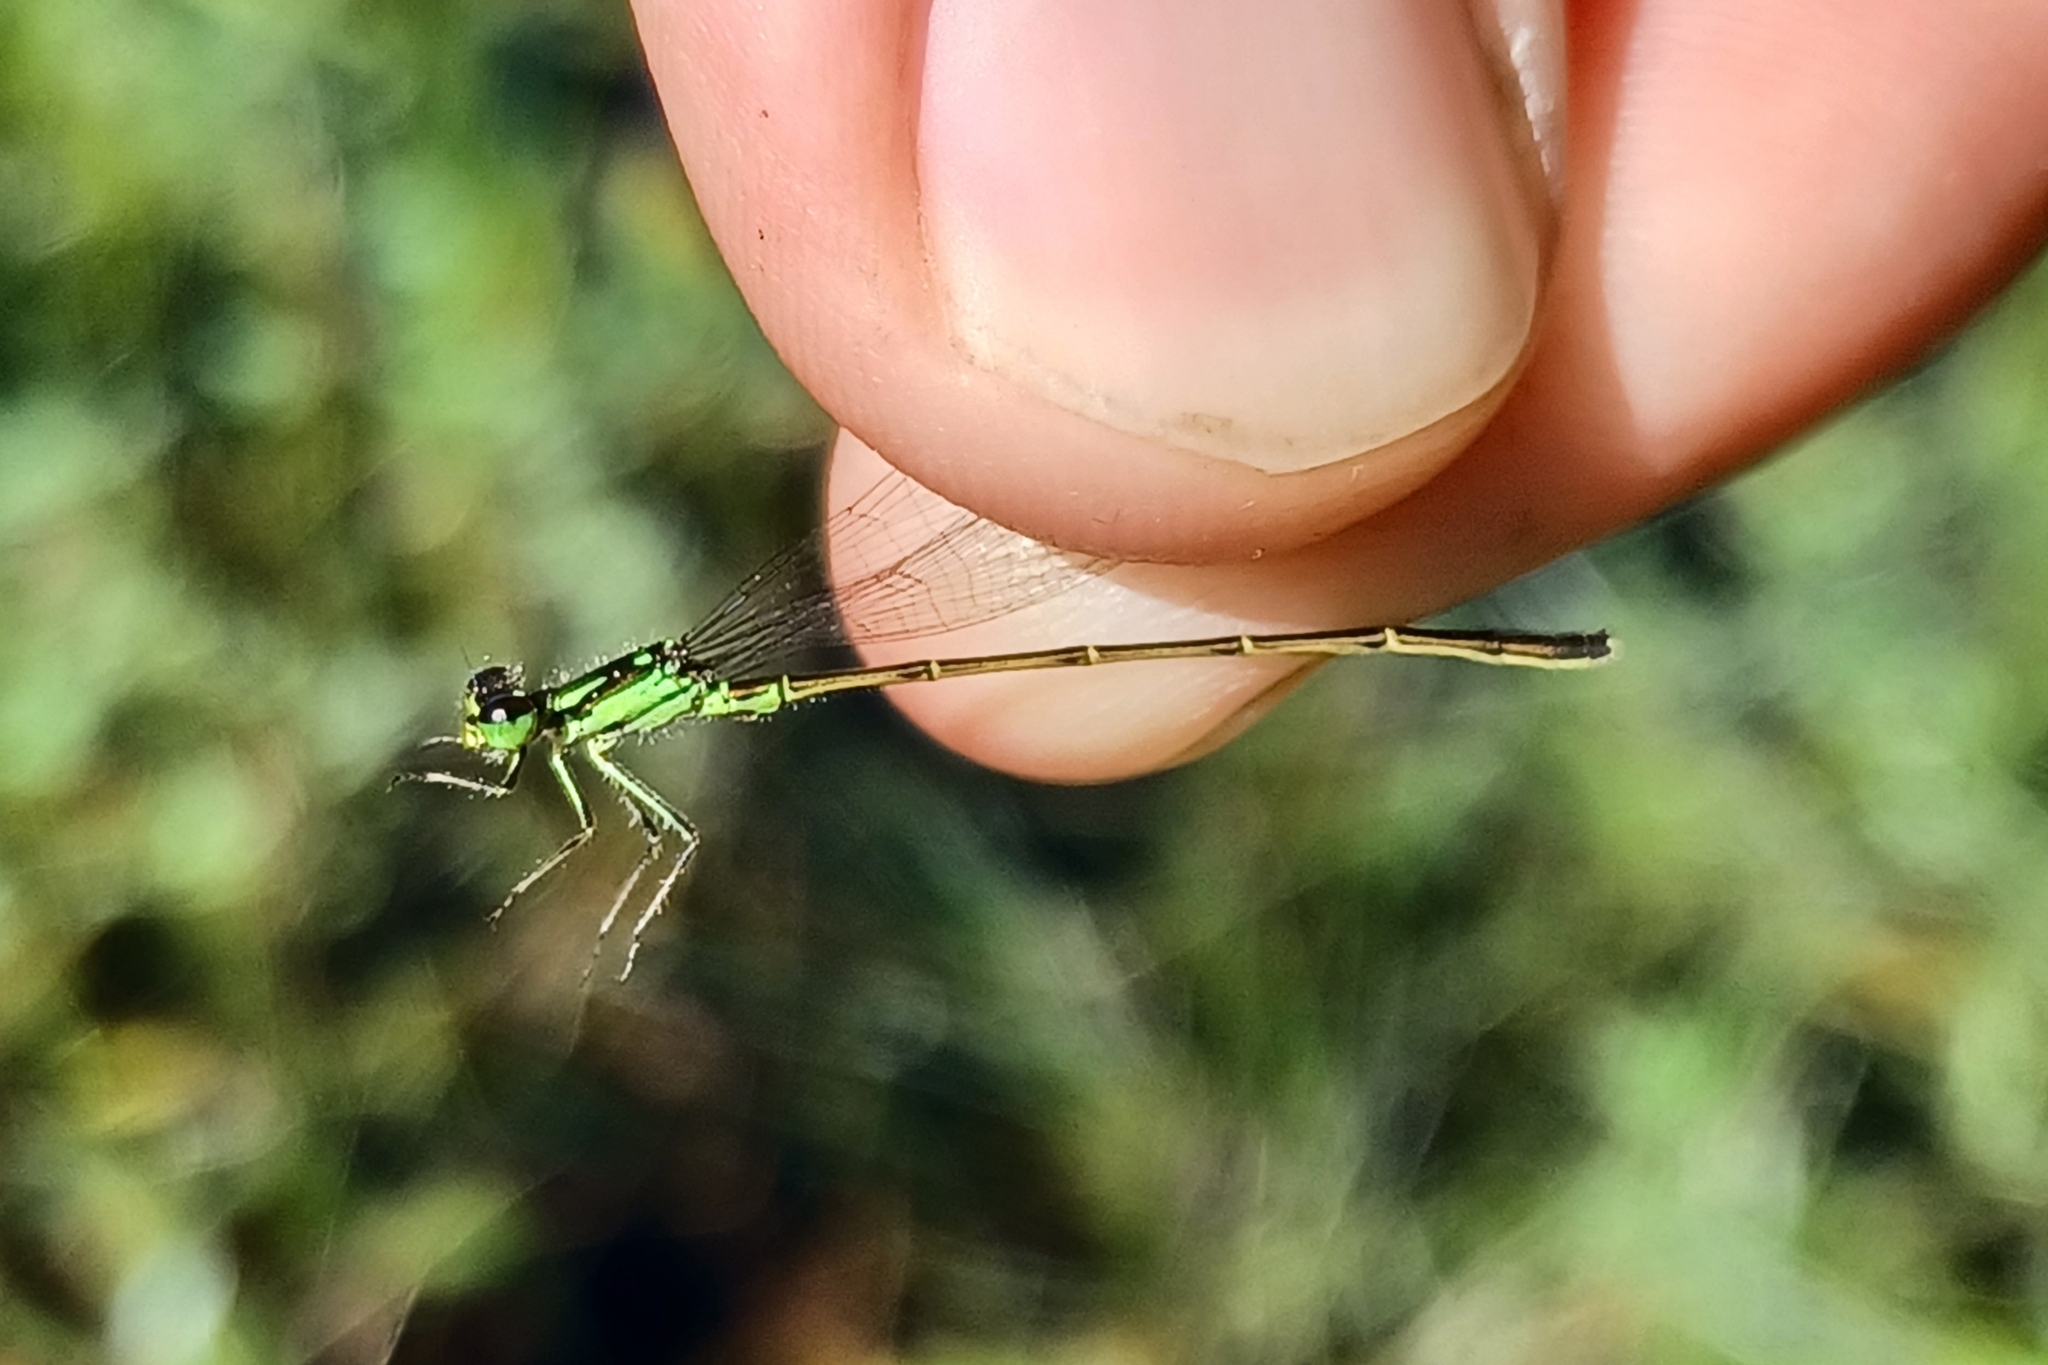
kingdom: Animalia
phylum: Arthropoda
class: Insecta
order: Odonata
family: Coenagrionidae
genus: Ischnura
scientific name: Ischnura posita
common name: Fragile forktail
